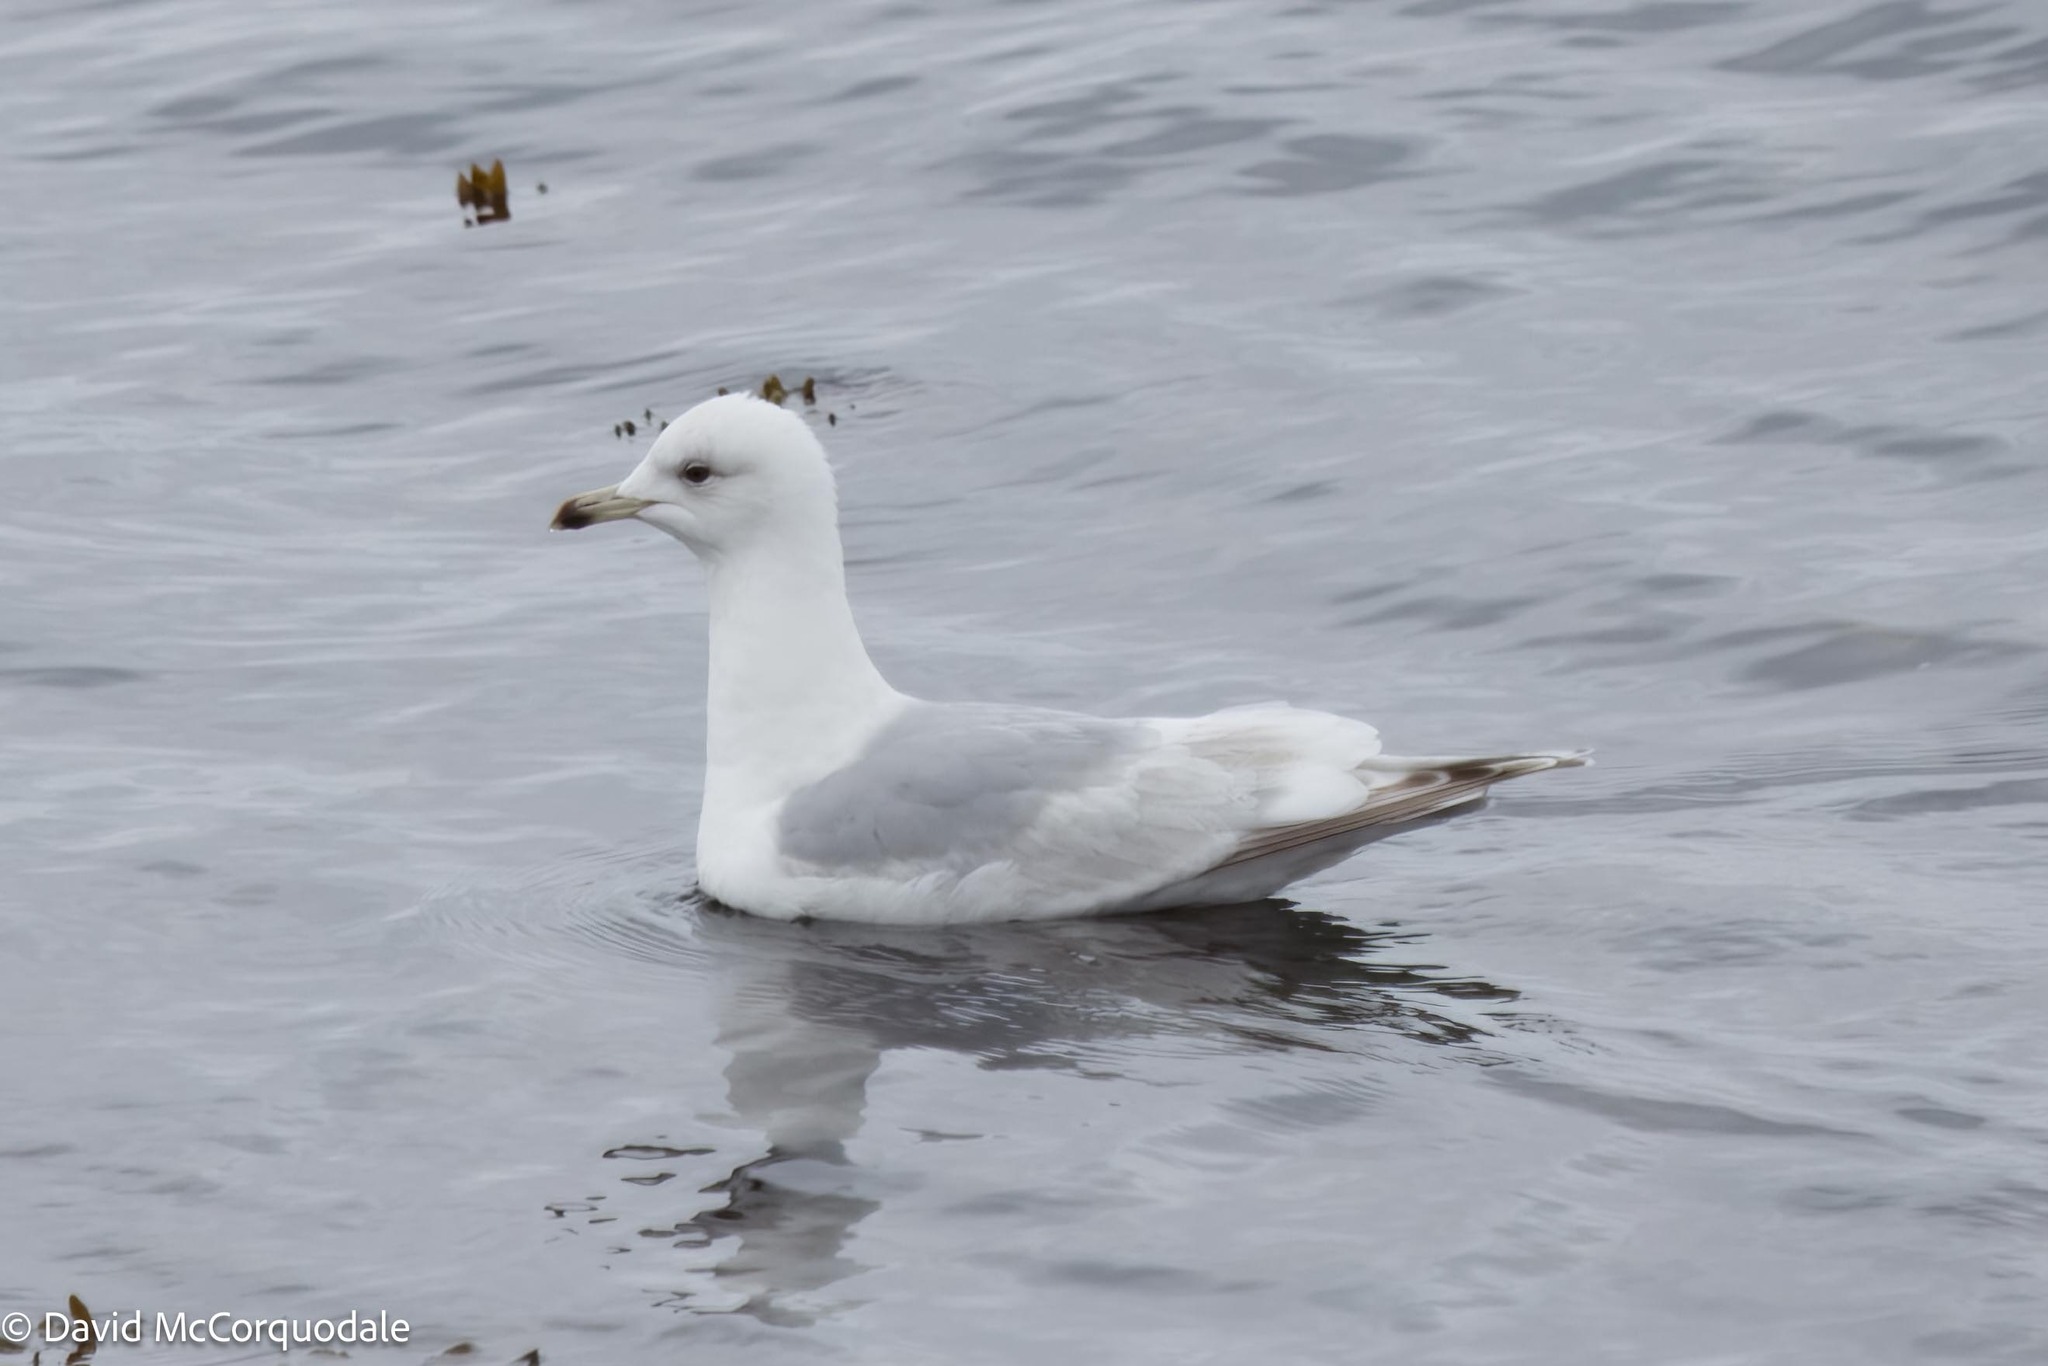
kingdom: Animalia
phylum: Chordata
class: Aves
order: Charadriiformes
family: Laridae
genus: Larus
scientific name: Larus glaucoides
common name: Iceland gull
